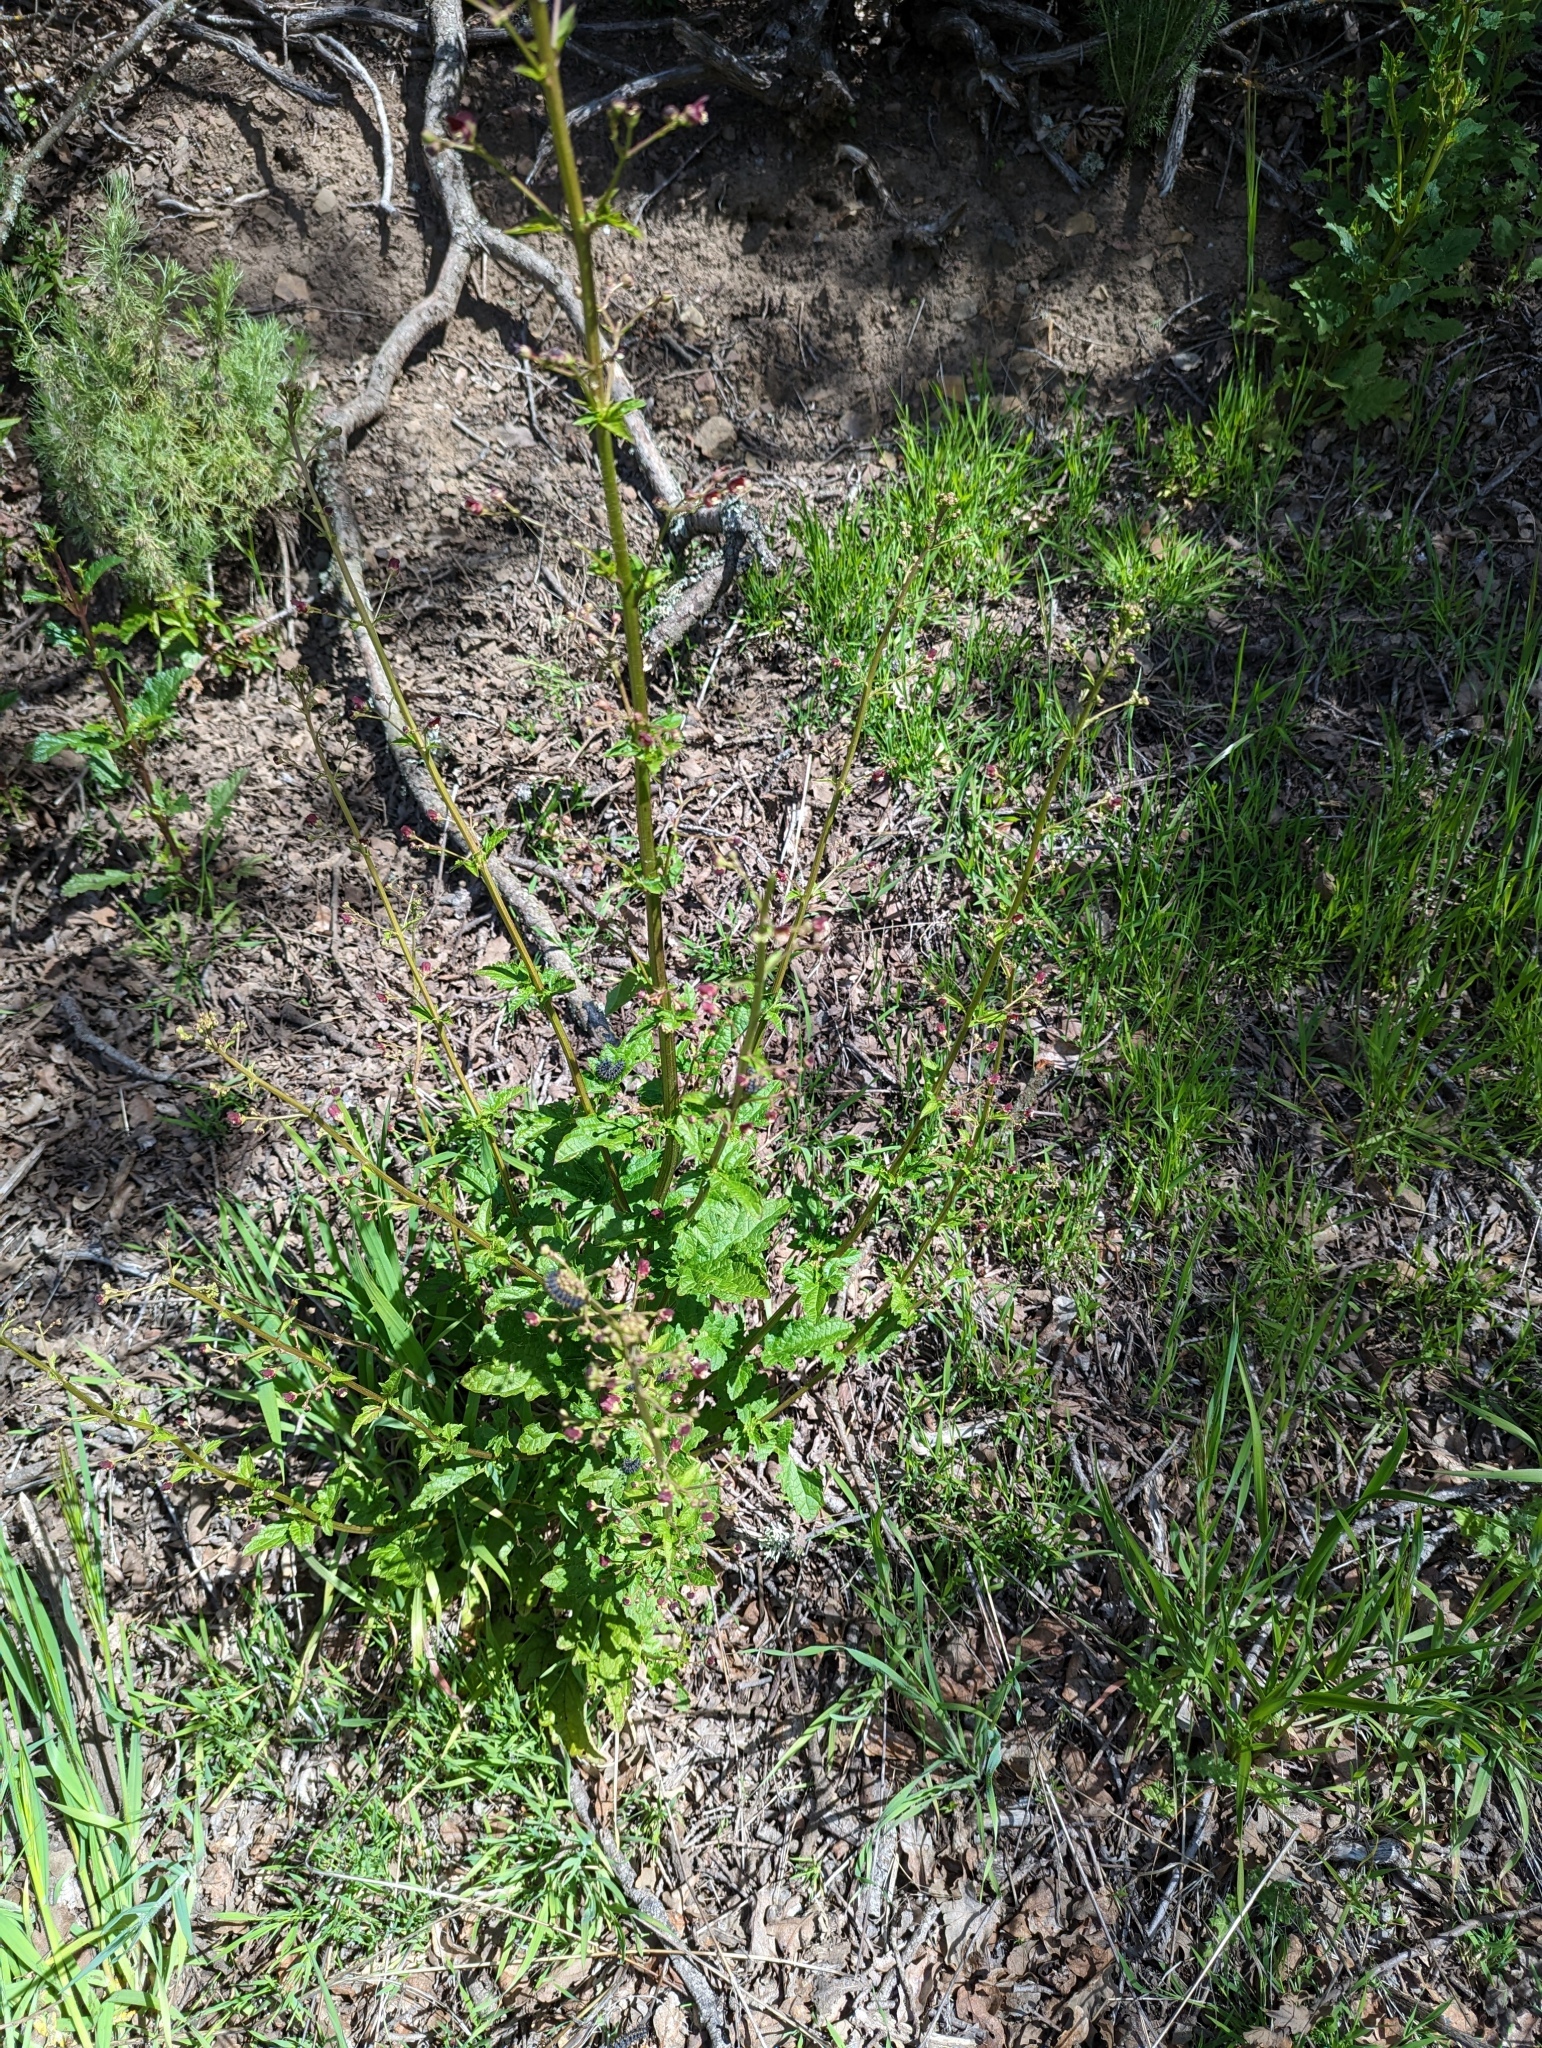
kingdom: Plantae
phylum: Tracheophyta
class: Magnoliopsida
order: Lamiales
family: Scrophulariaceae
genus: Scrophularia
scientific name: Scrophularia californica
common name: California figwort
